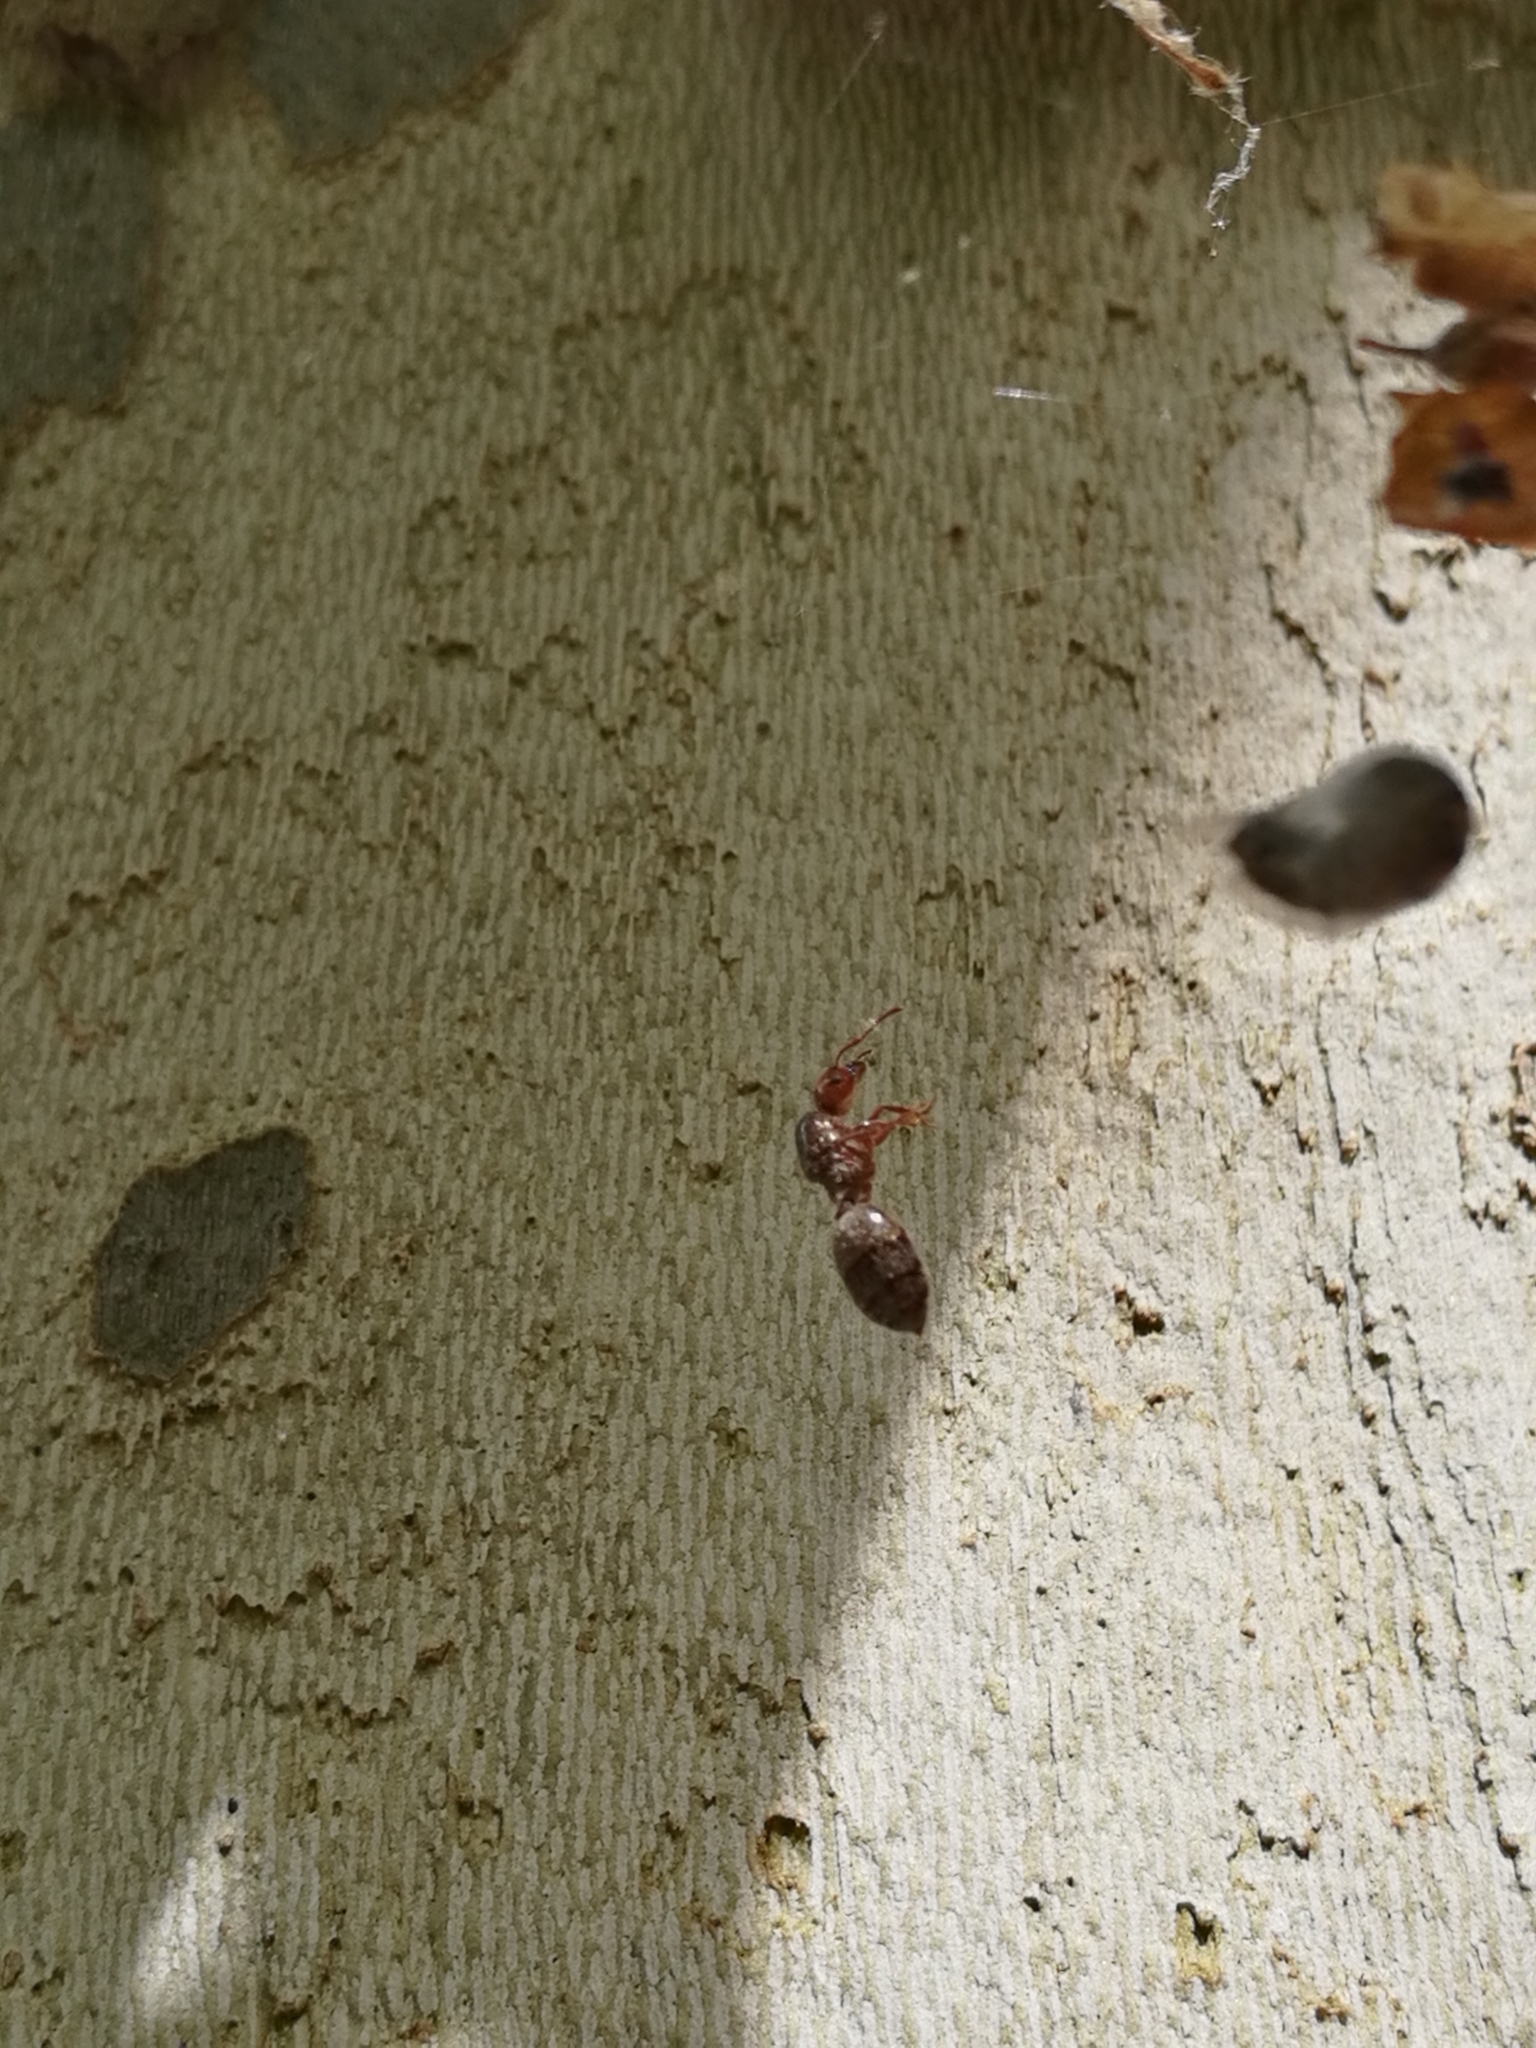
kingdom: Animalia
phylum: Arthropoda
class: Insecta
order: Hymenoptera
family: Formicidae
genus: Crematogaster
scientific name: Crematogaster scutellaris
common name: Fourmi du liège
